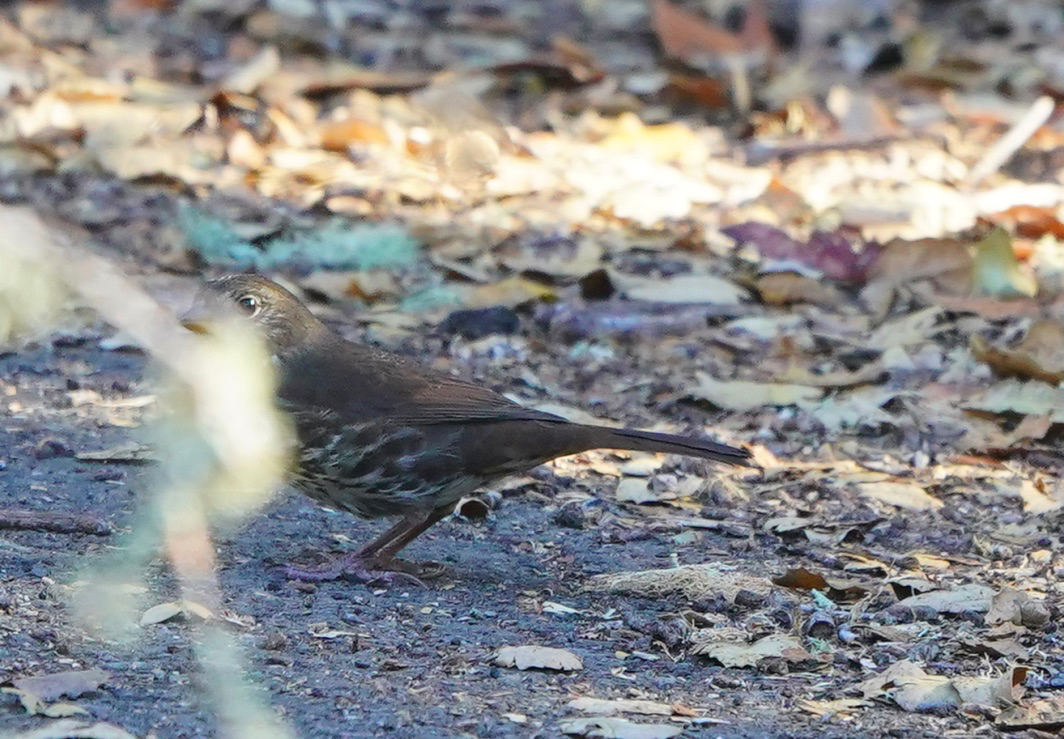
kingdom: Animalia
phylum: Chordata
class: Aves
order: Passeriformes
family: Passerellidae
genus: Passerella
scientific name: Passerella iliaca
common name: Fox sparrow
